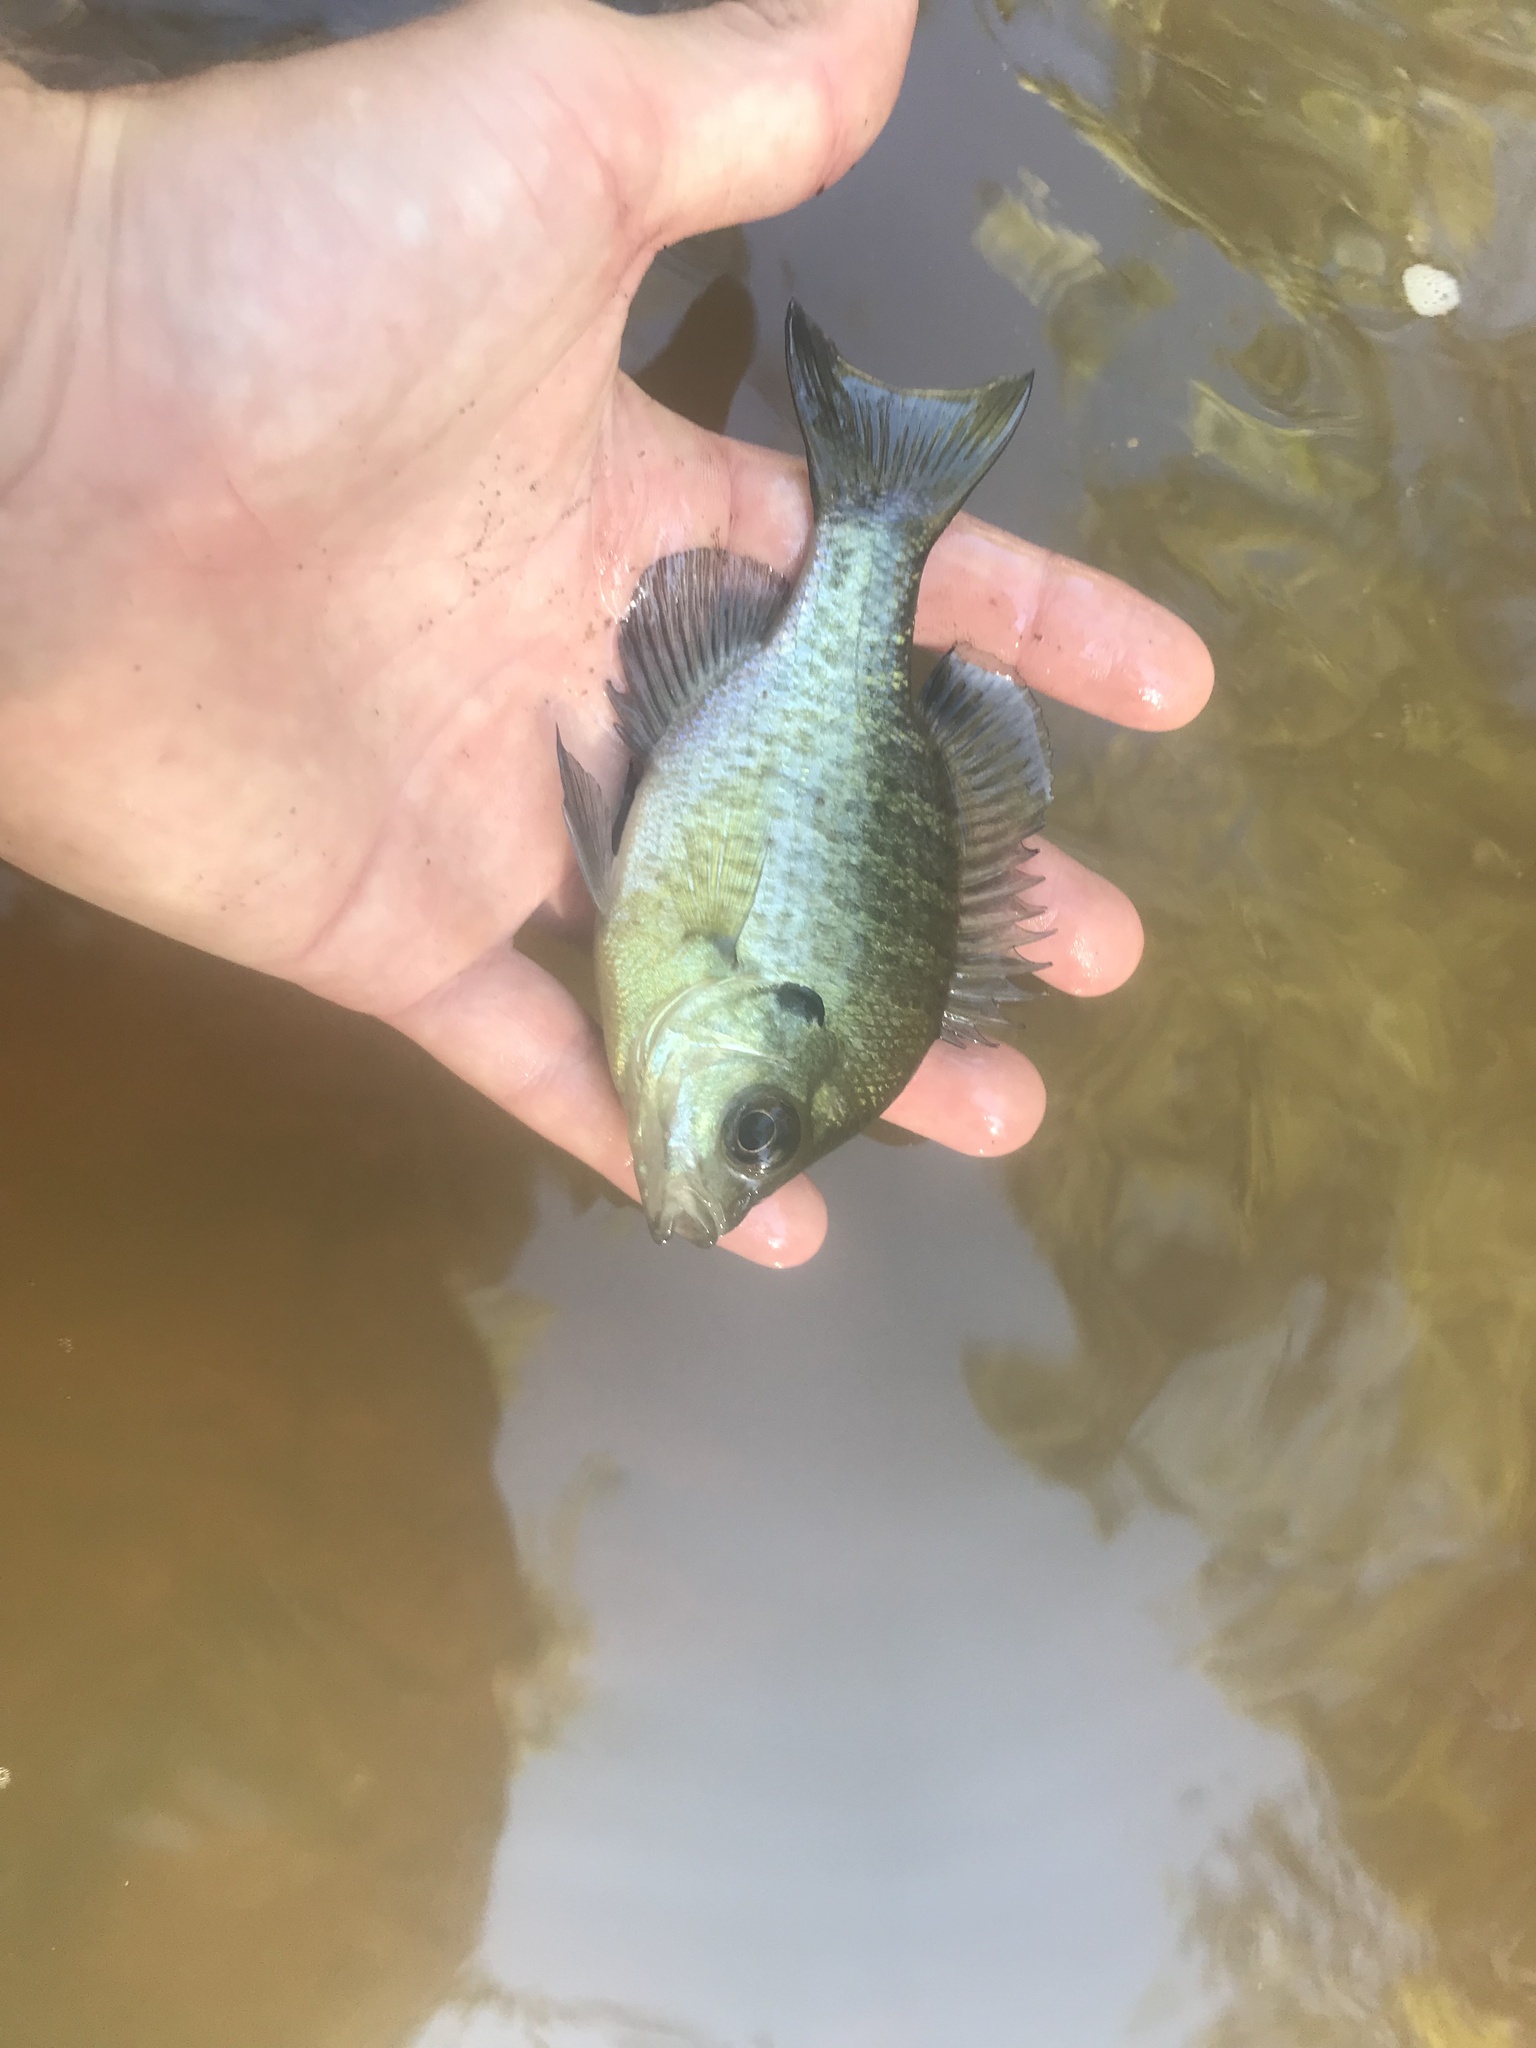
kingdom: Animalia
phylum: Chordata
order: Perciformes
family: Centrarchidae
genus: Lepomis
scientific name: Lepomis macrochirus
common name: Bluegill
